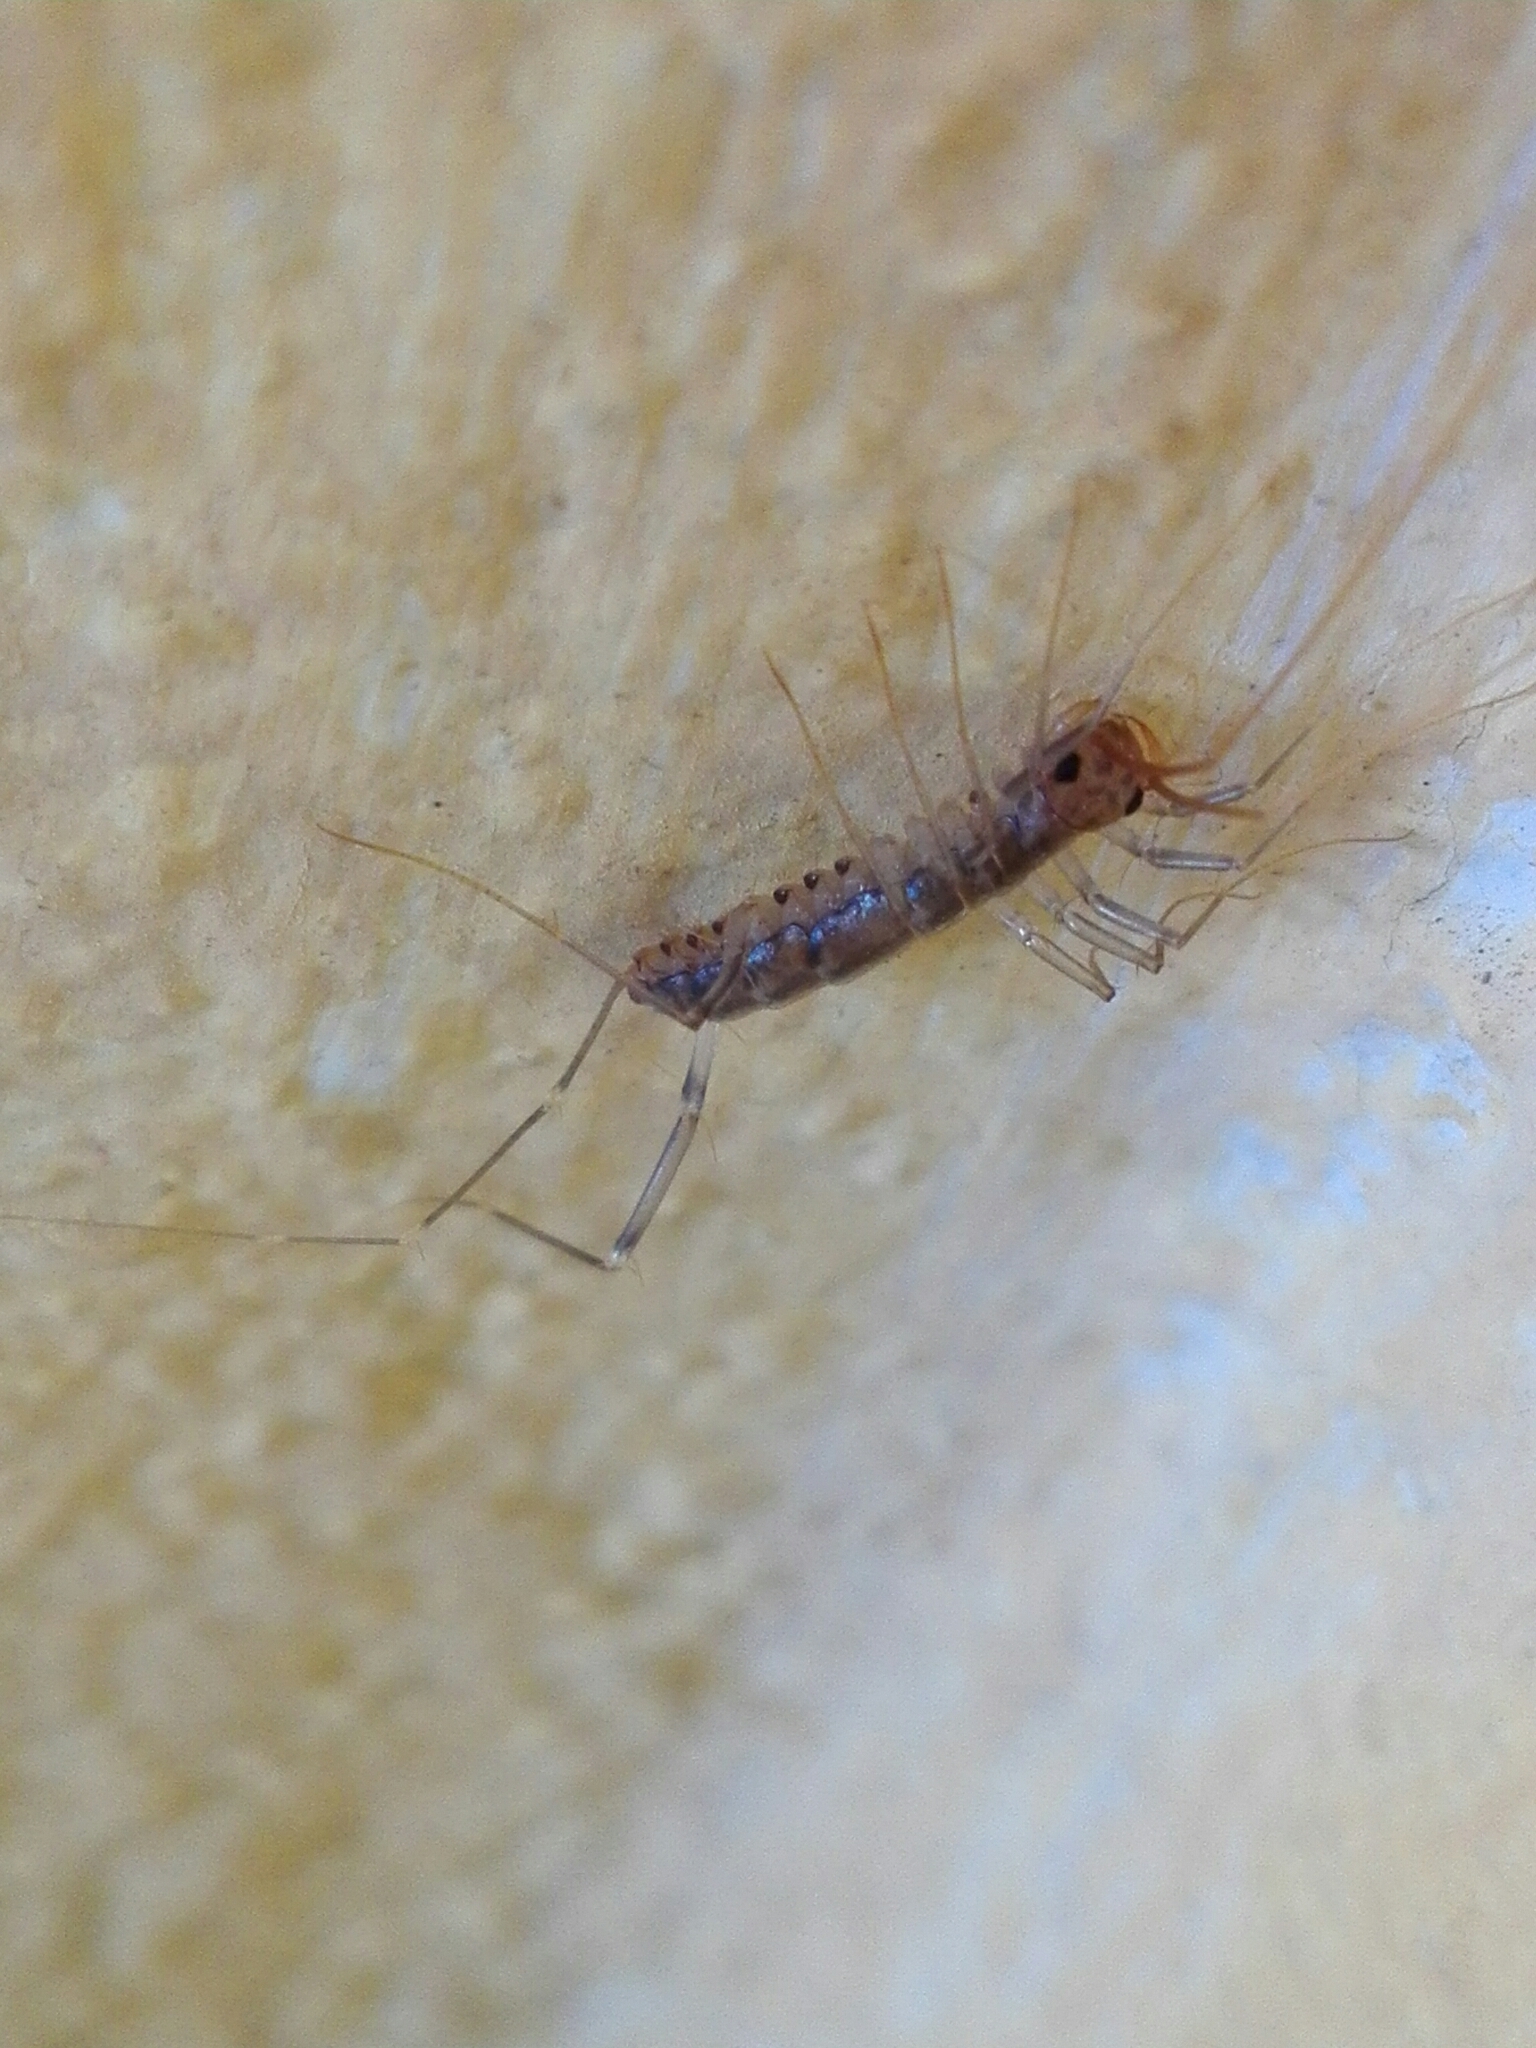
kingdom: Animalia
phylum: Arthropoda
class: Chilopoda
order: Scutigeromorpha
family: Scutigeridae
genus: Scutigera
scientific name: Scutigera coleoptrata
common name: House centipede
